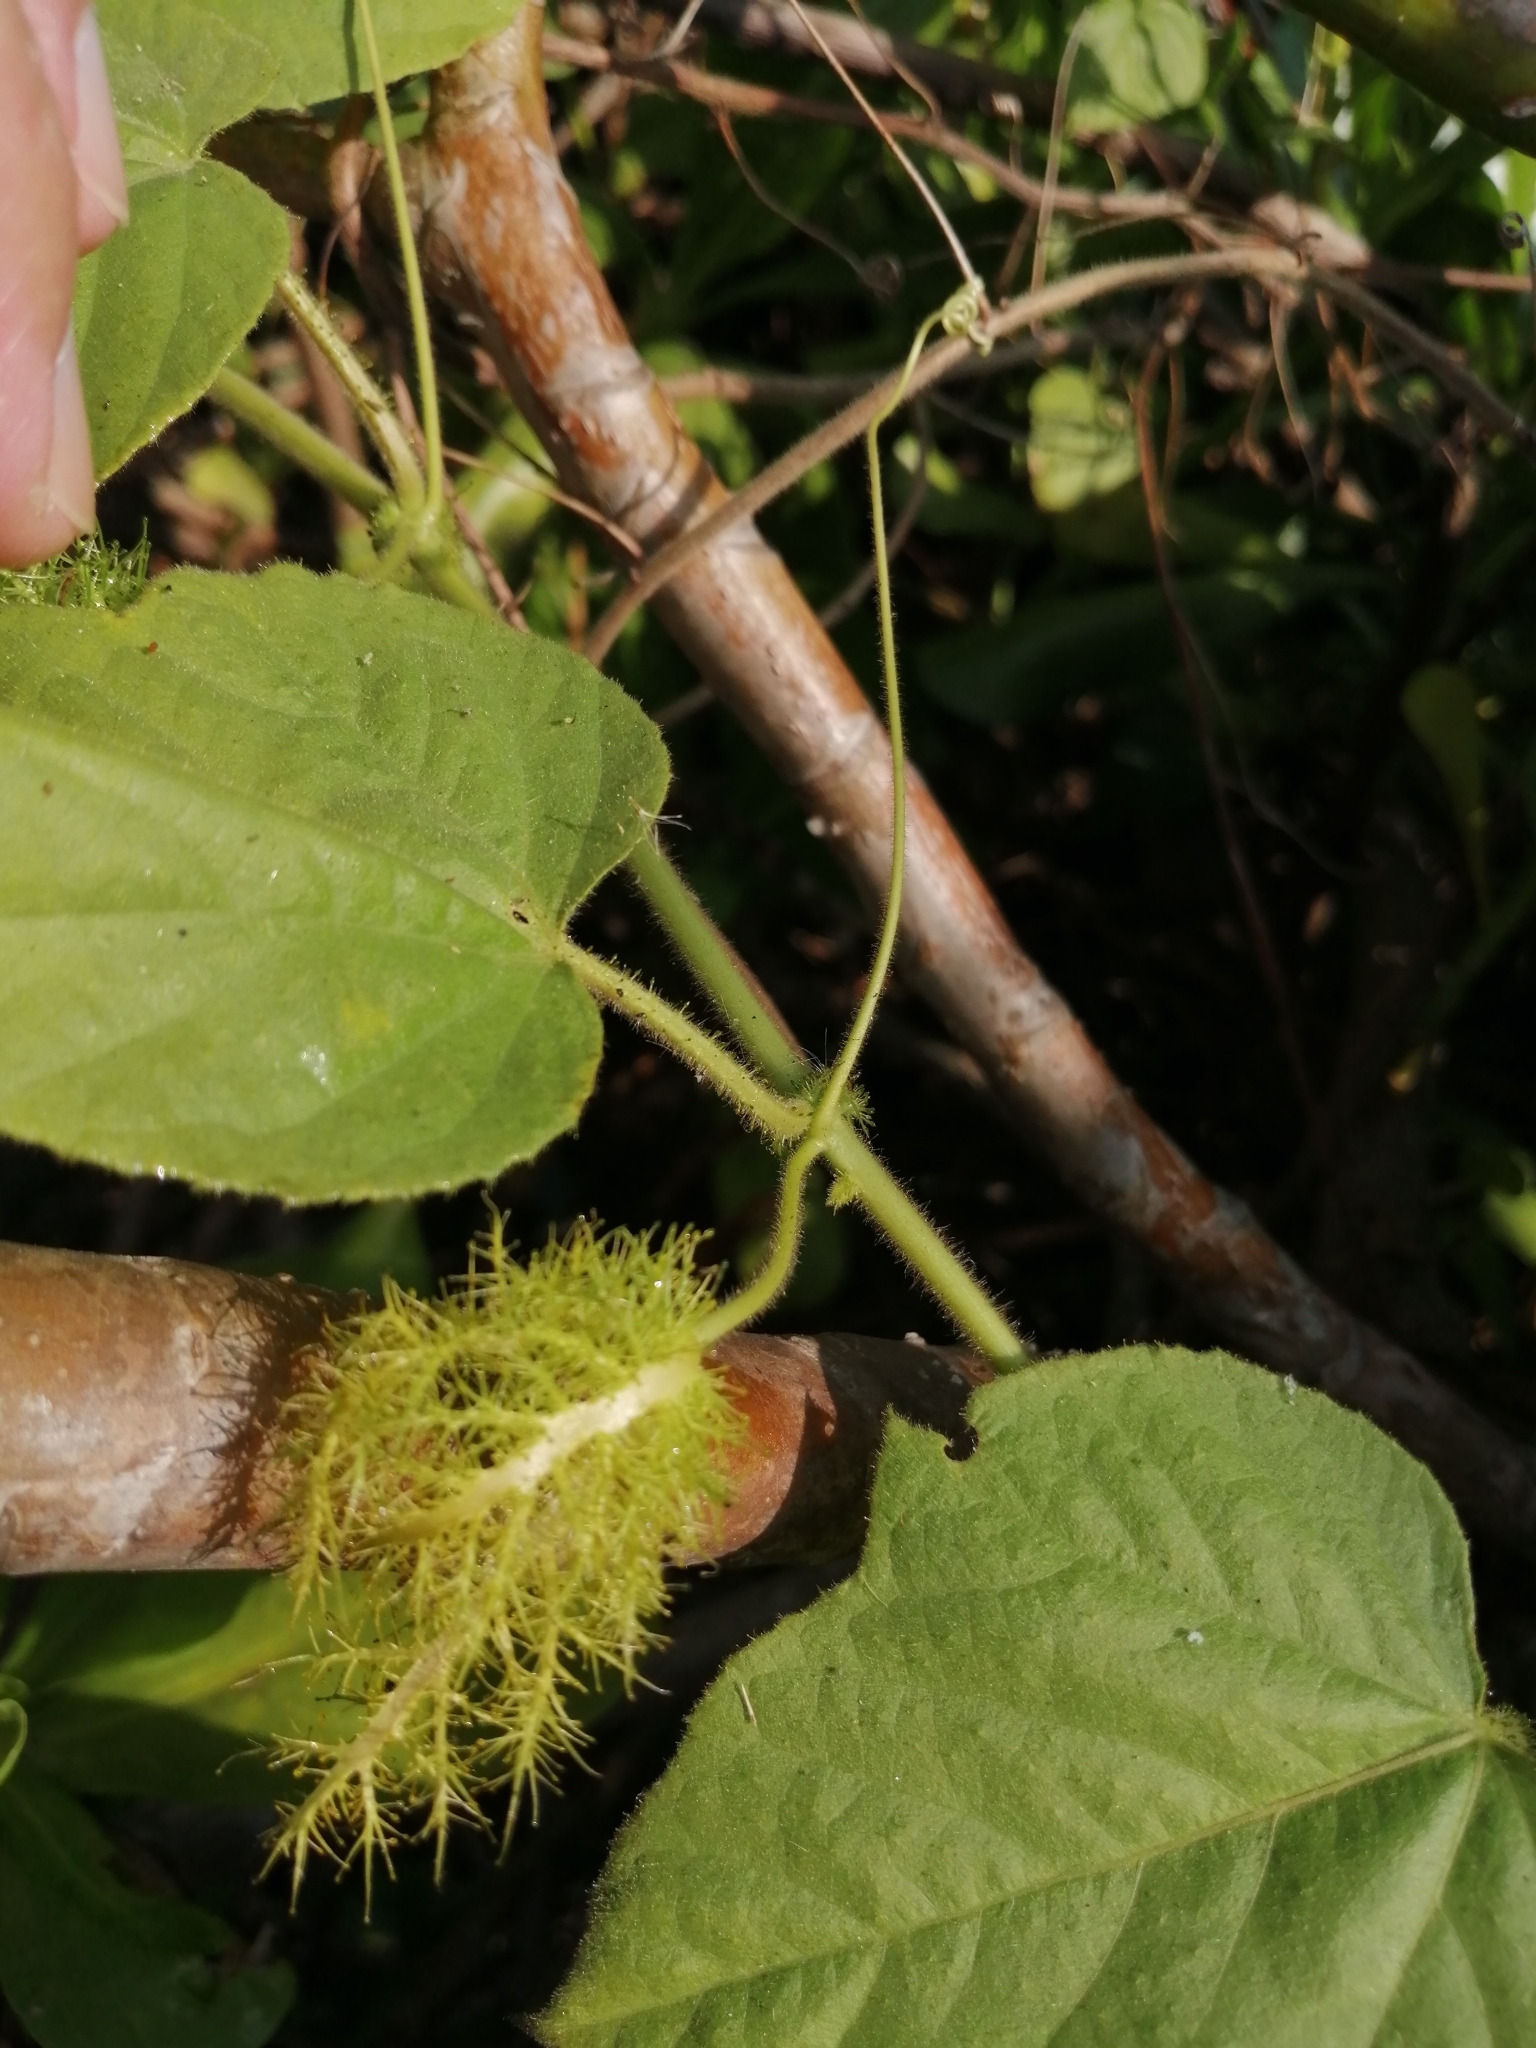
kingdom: Plantae
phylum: Tracheophyta
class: Magnoliopsida
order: Malpighiales
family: Passifloraceae
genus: Passiflora
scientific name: Passiflora vesicaria
